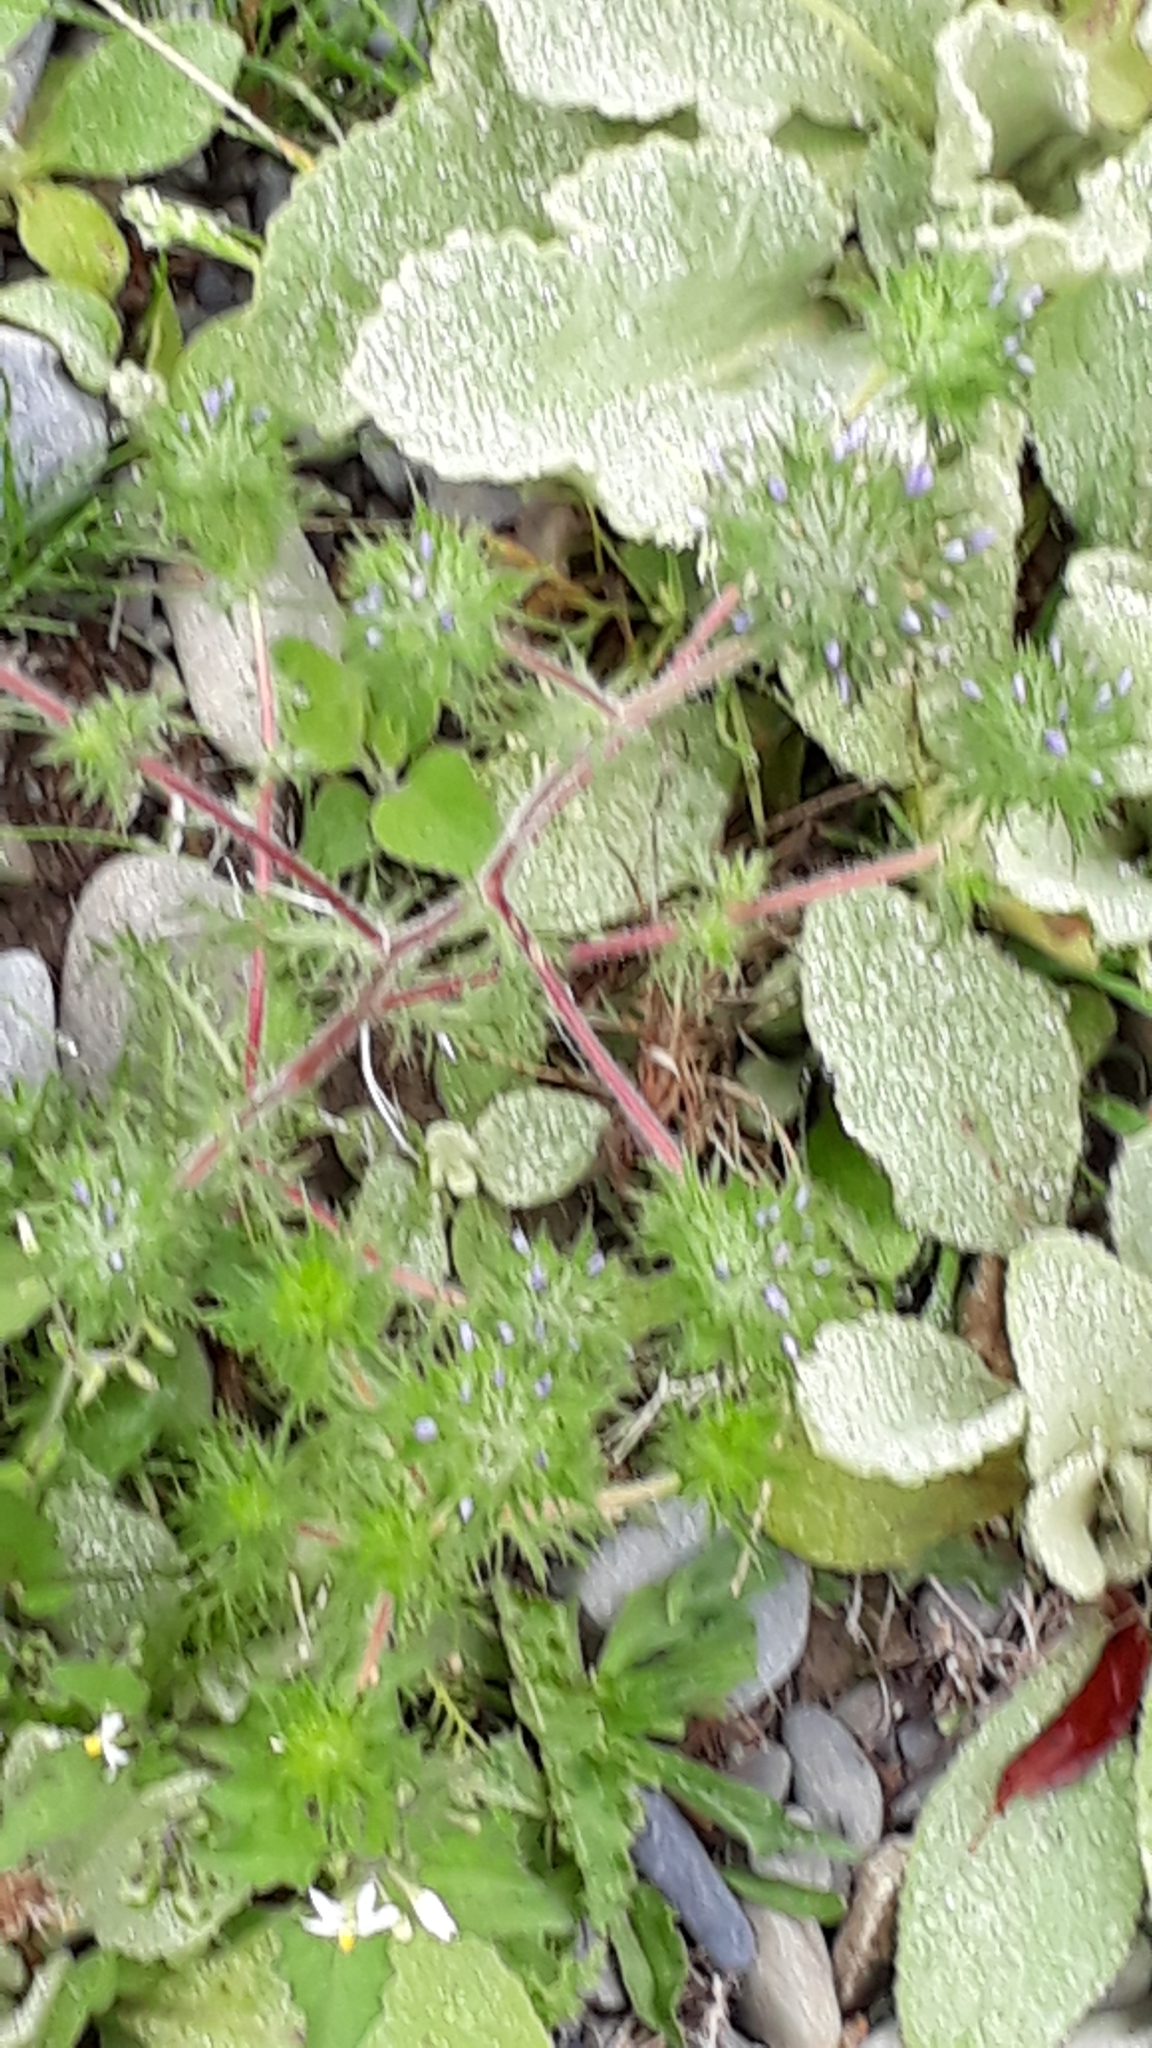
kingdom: Plantae
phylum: Tracheophyta
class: Magnoliopsida
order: Ericales
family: Polemoniaceae
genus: Navarretia
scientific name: Navarretia squarrosa
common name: Skunkweed
